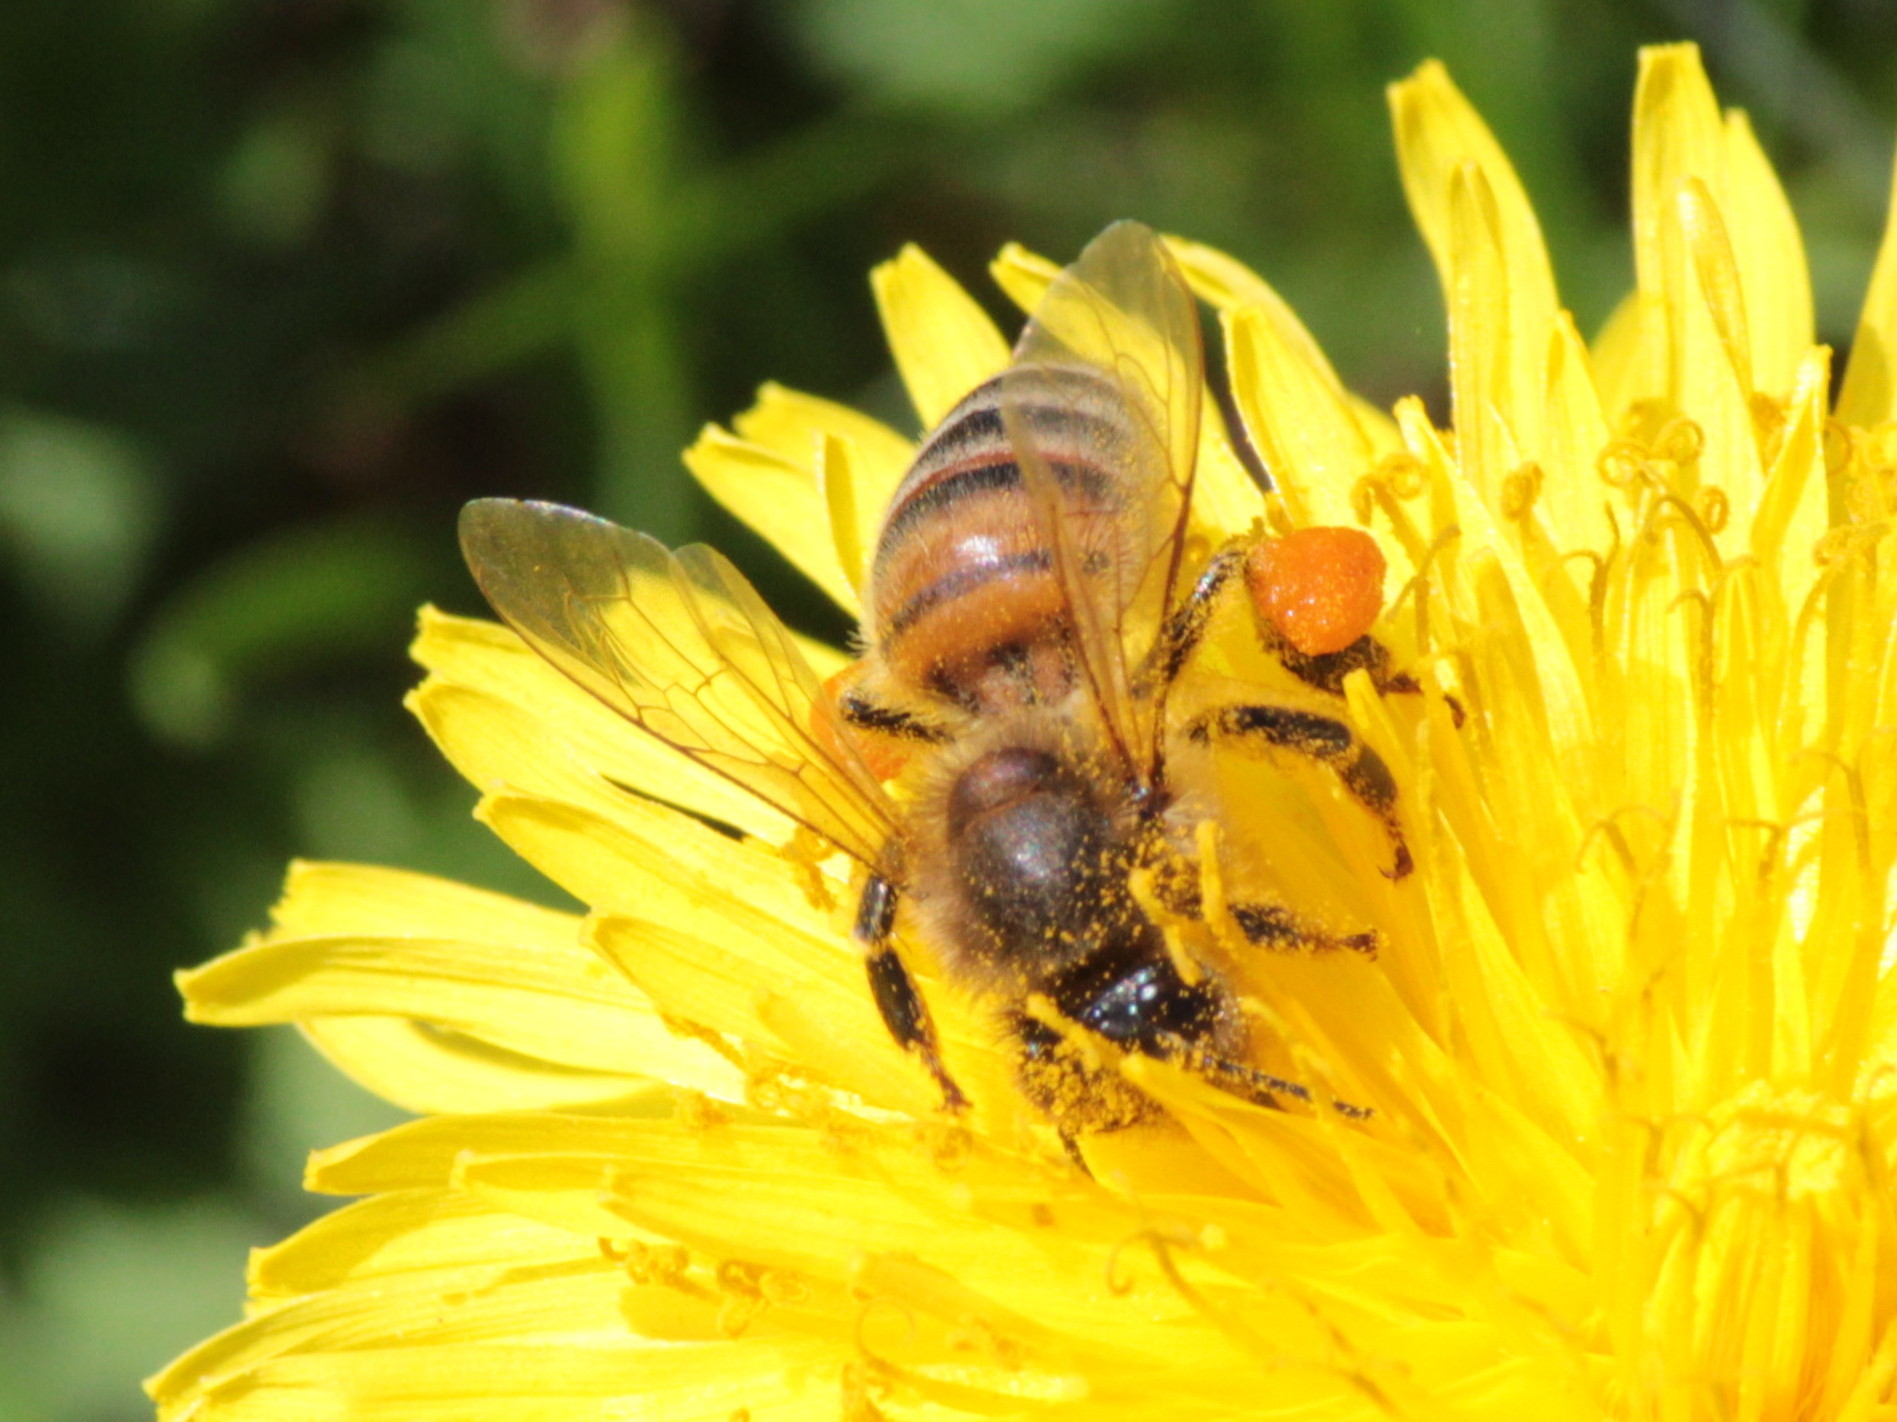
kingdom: Animalia
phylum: Arthropoda
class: Insecta
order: Hymenoptera
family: Apidae
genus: Apis
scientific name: Apis mellifera
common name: Honey bee
